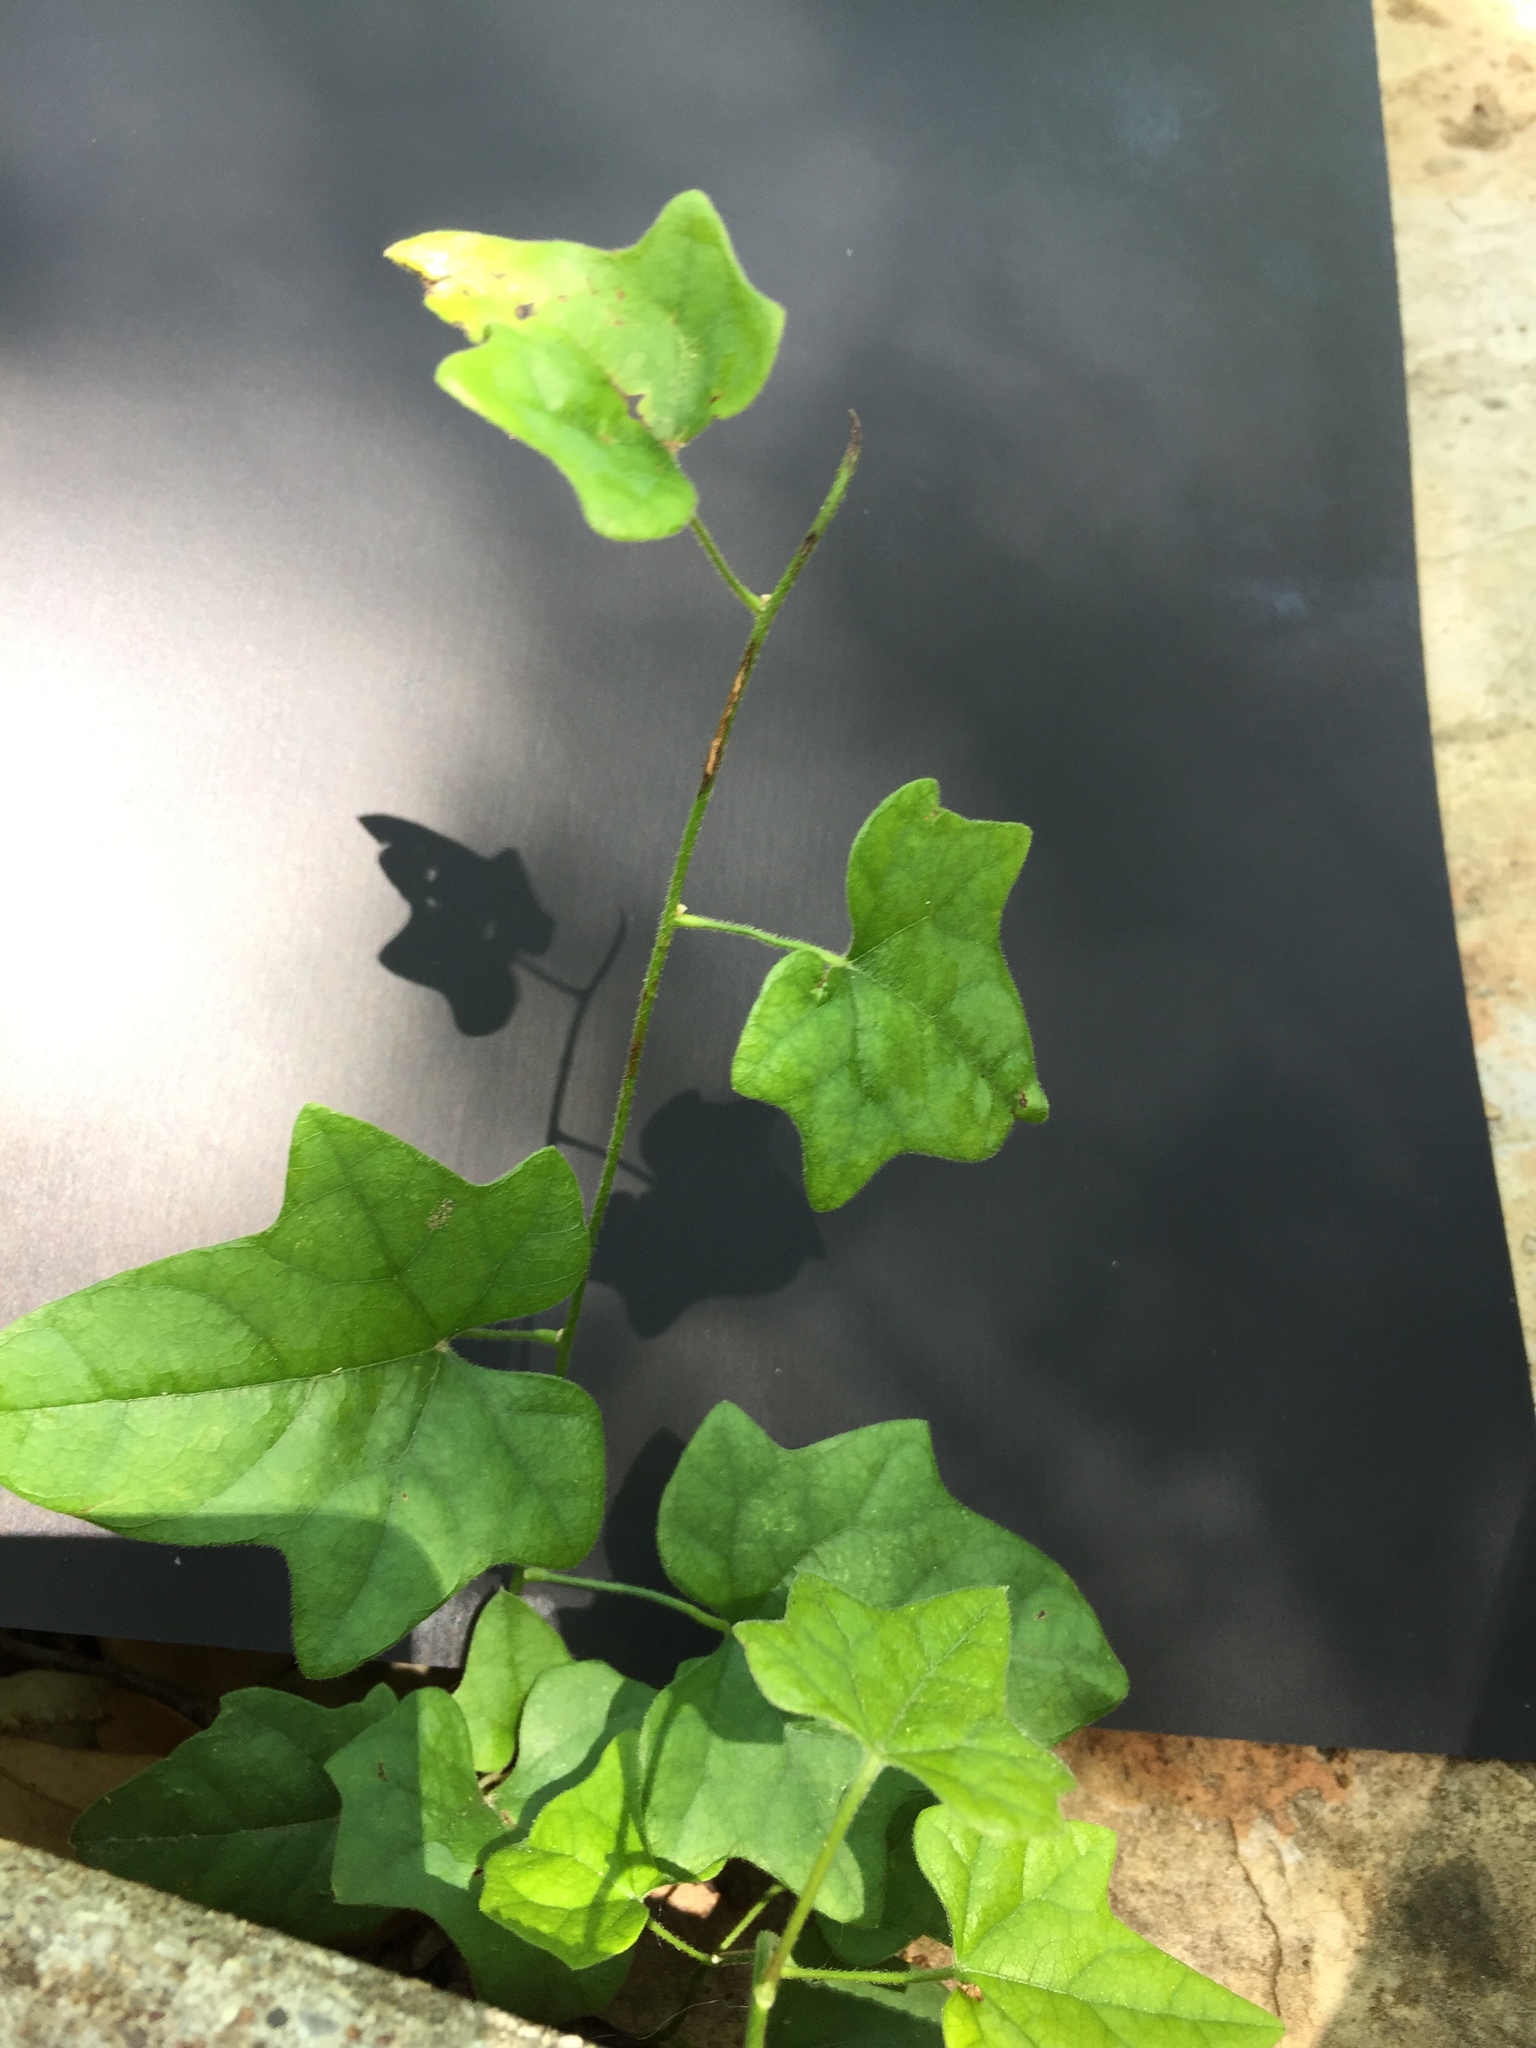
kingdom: Plantae
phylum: Tracheophyta
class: Magnoliopsida
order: Ranunculales
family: Menispermaceae
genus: Cocculus
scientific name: Cocculus carolinus
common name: Carolina moonseed
